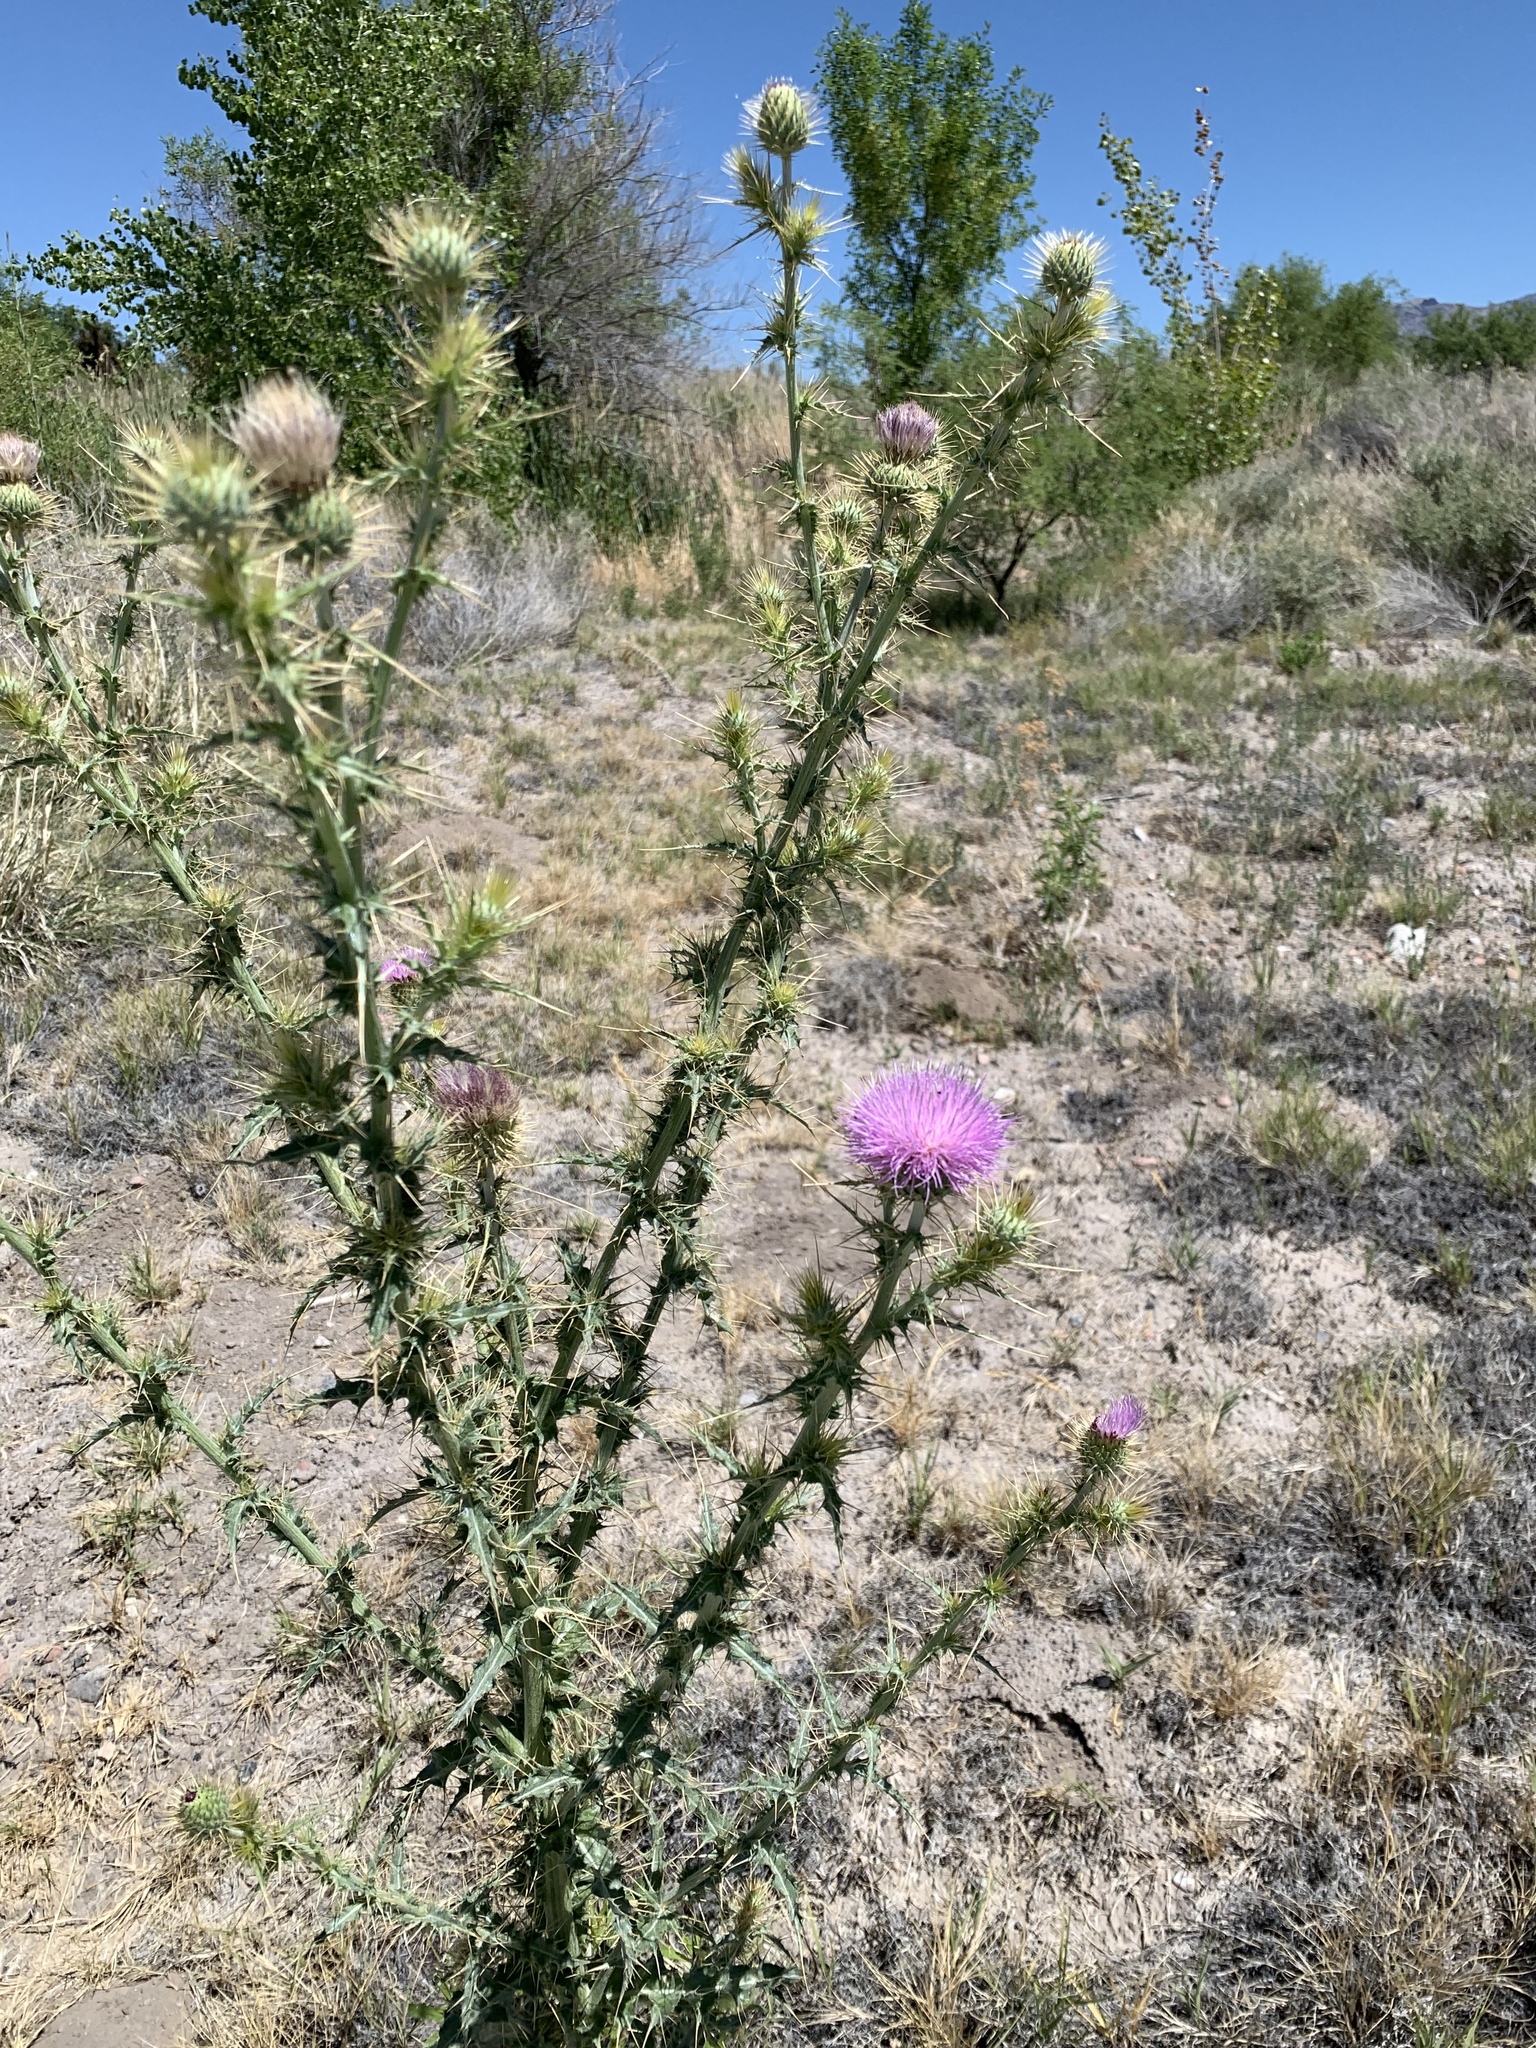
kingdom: Plantae
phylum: Tracheophyta
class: Magnoliopsida
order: Asterales
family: Asteraceae
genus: Cirsium
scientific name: Cirsium mohavense
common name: Mojave thistle
